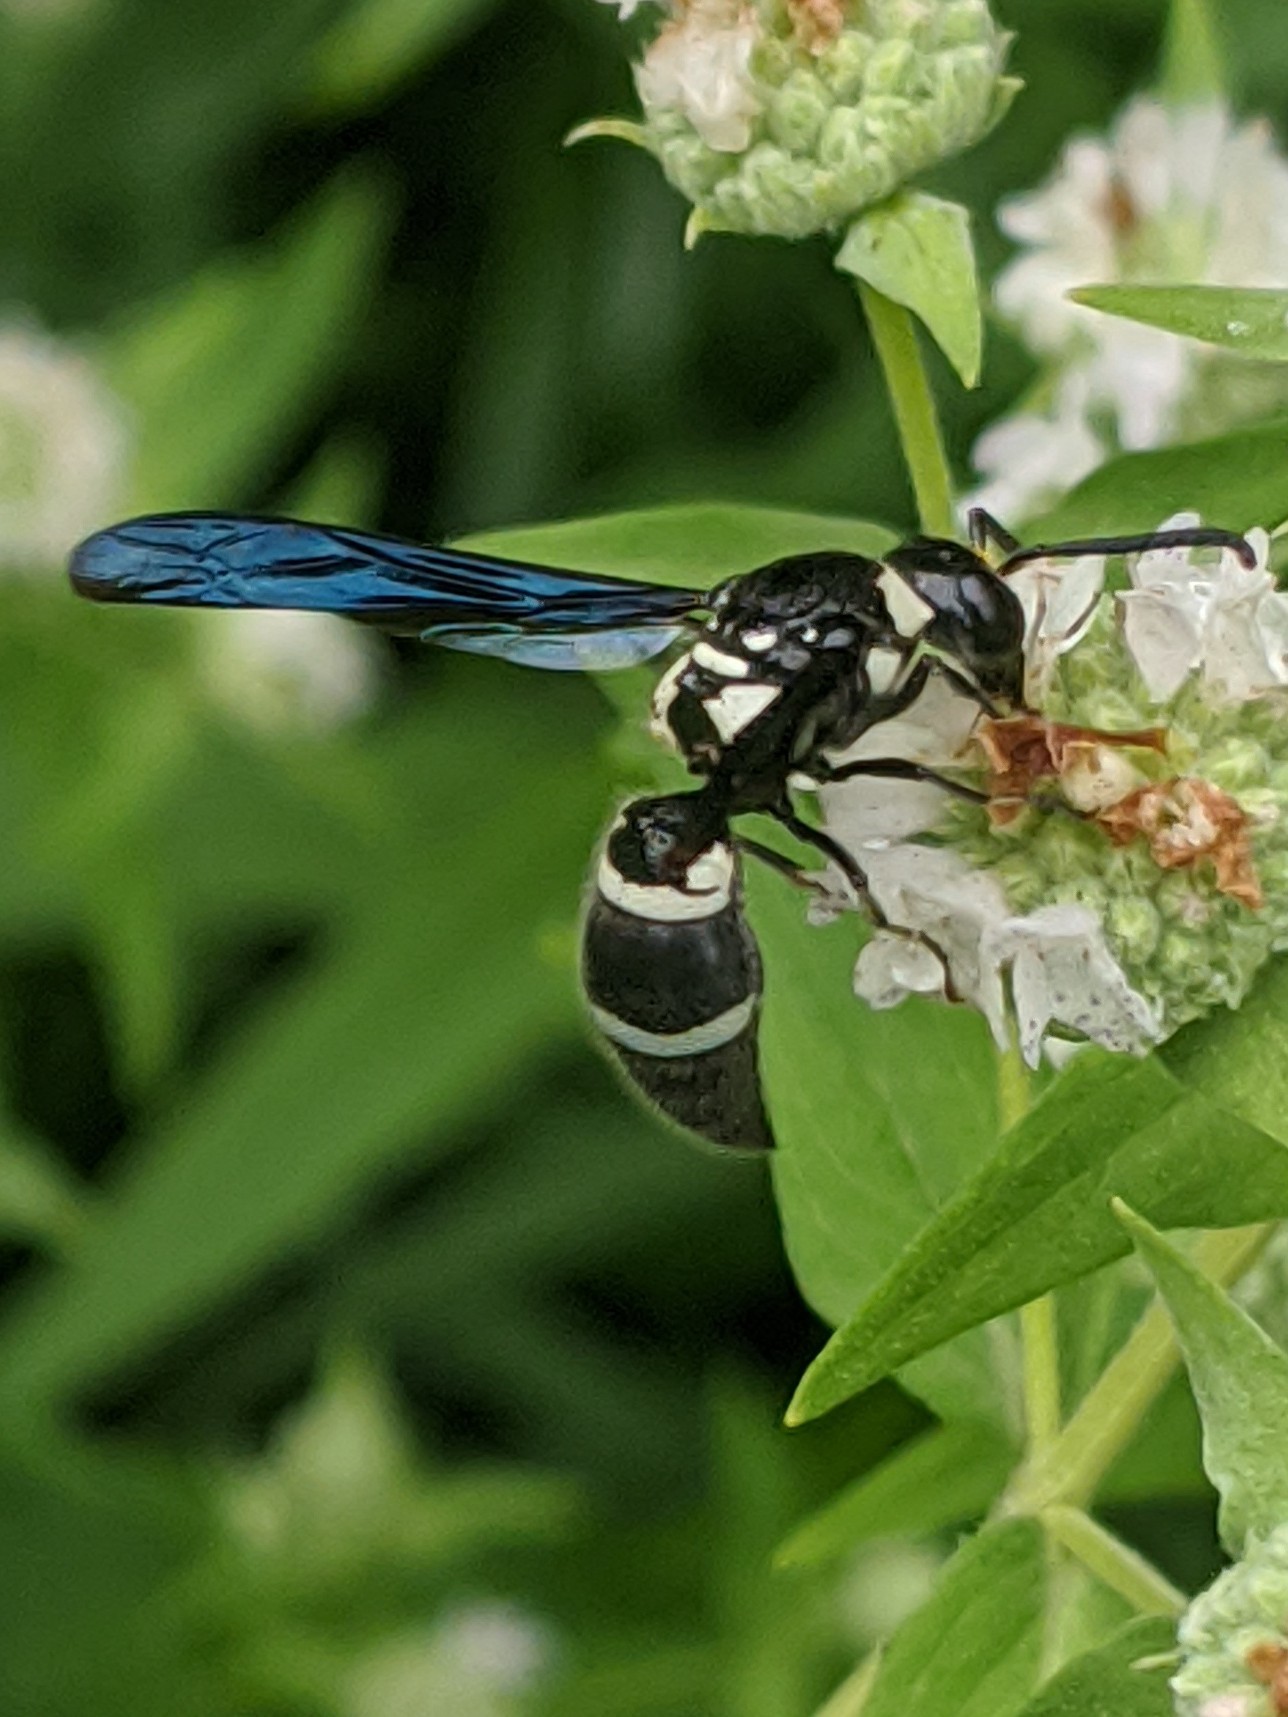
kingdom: Animalia
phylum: Arthropoda
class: Insecta
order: Hymenoptera
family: Eumenidae
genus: Pseudodynerus
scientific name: Pseudodynerus quadrisectus
